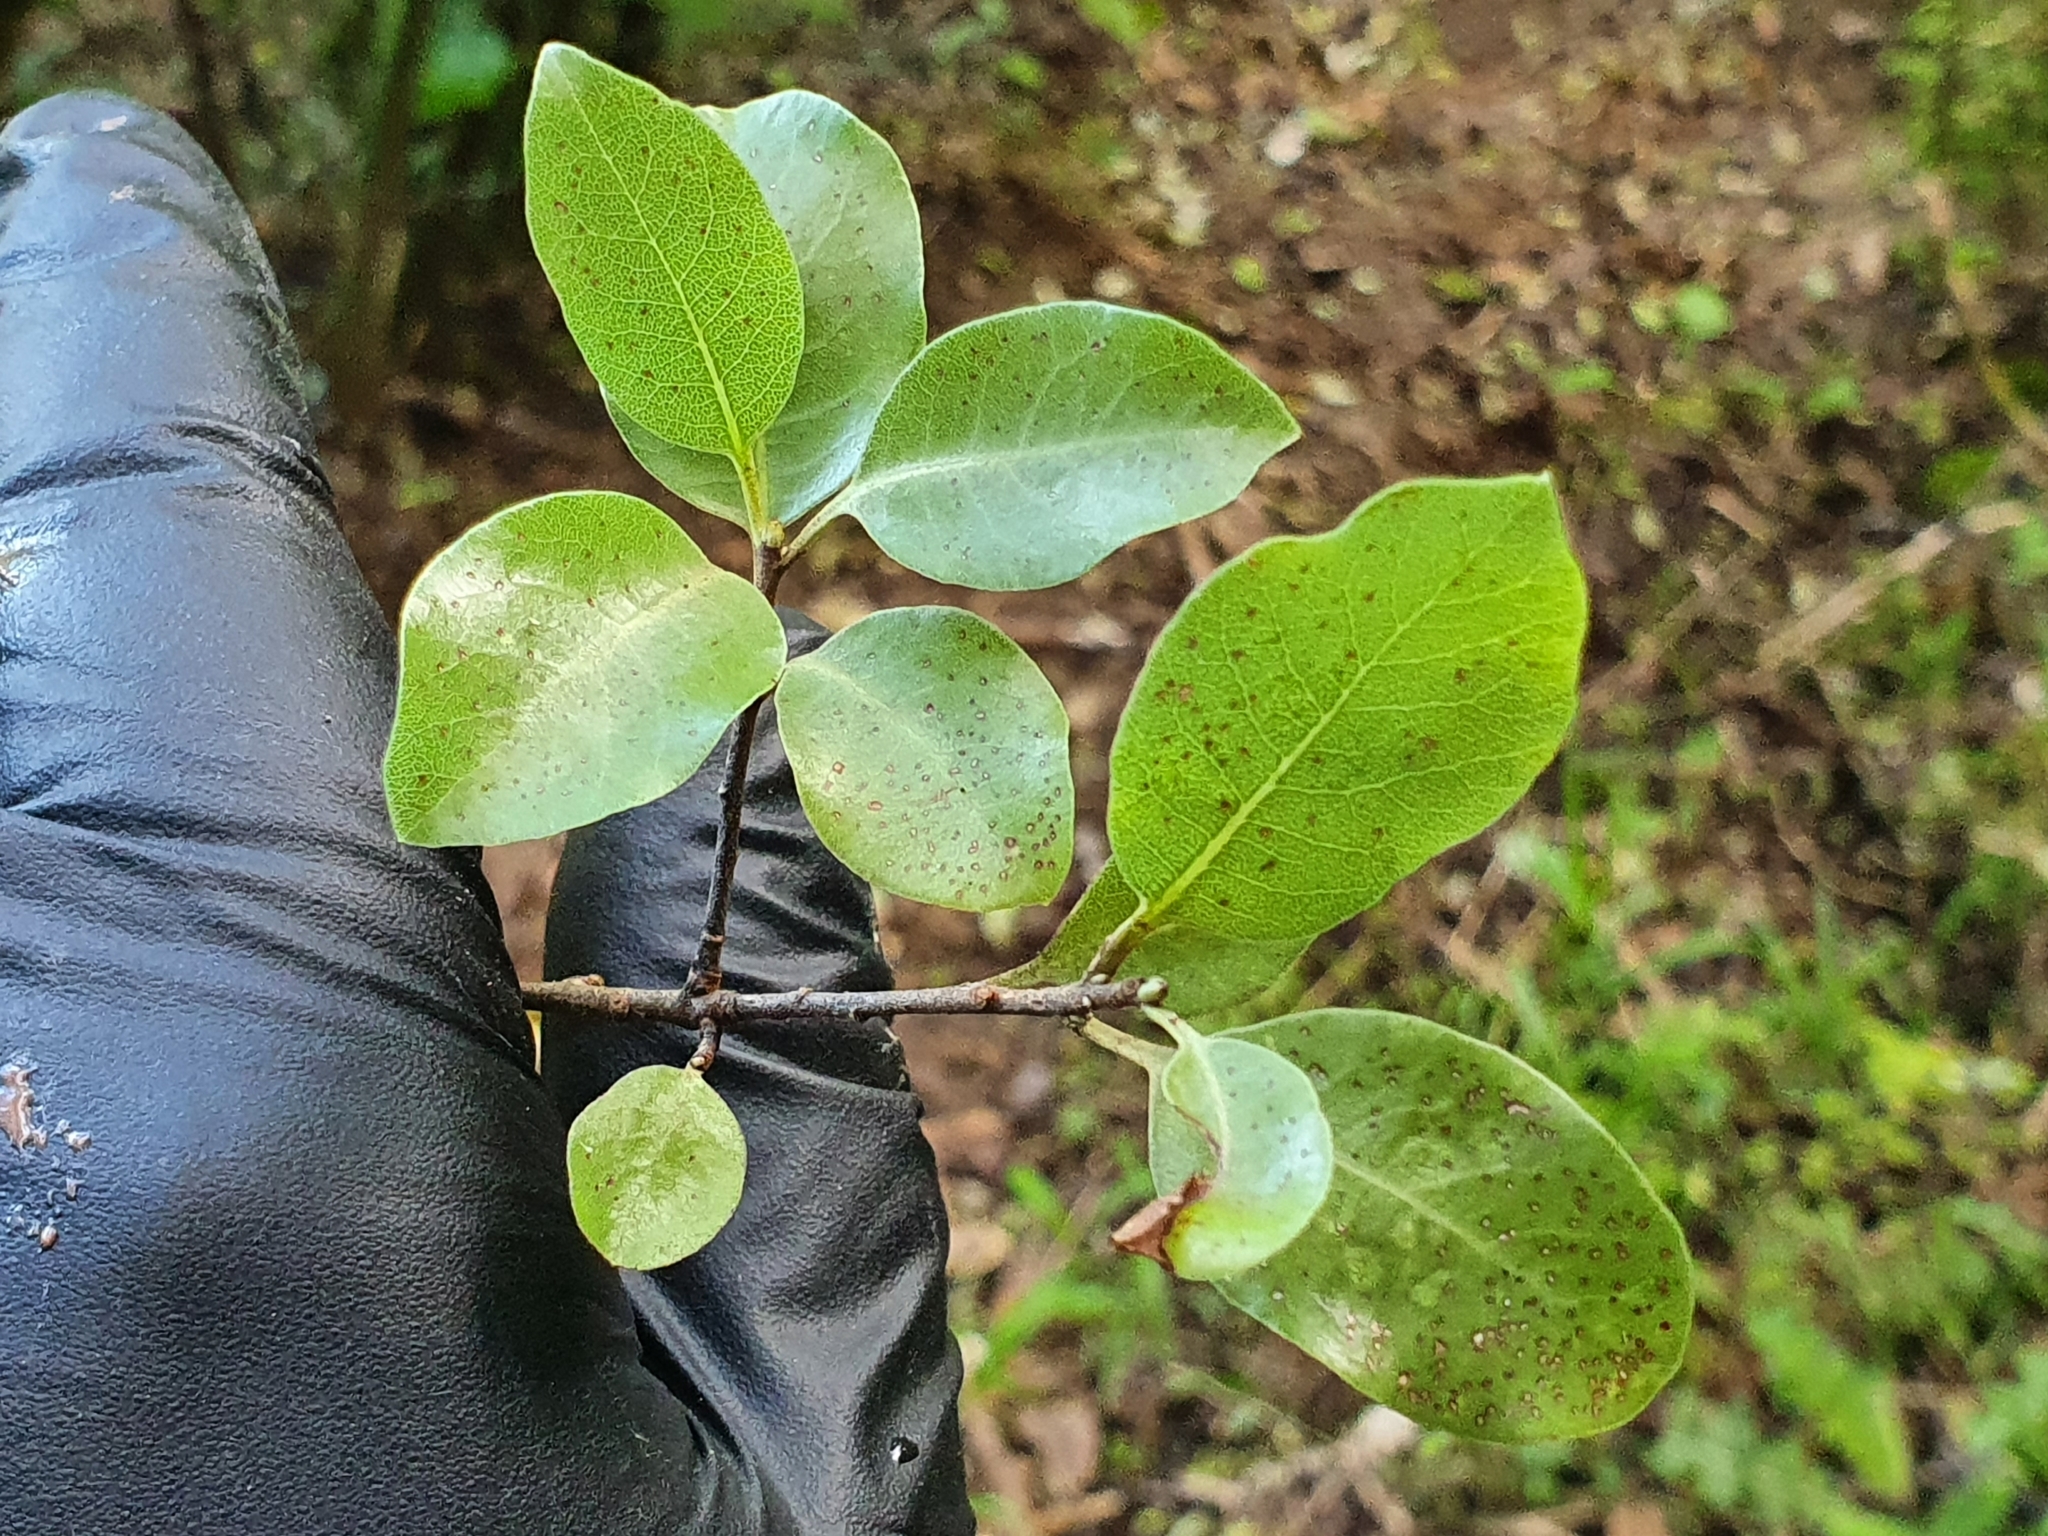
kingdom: Plantae
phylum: Tracheophyta
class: Magnoliopsida
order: Apiales
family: Pittosporaceae
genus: Pittosporum
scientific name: Pittosporum tenuifolium
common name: Kohuhu
